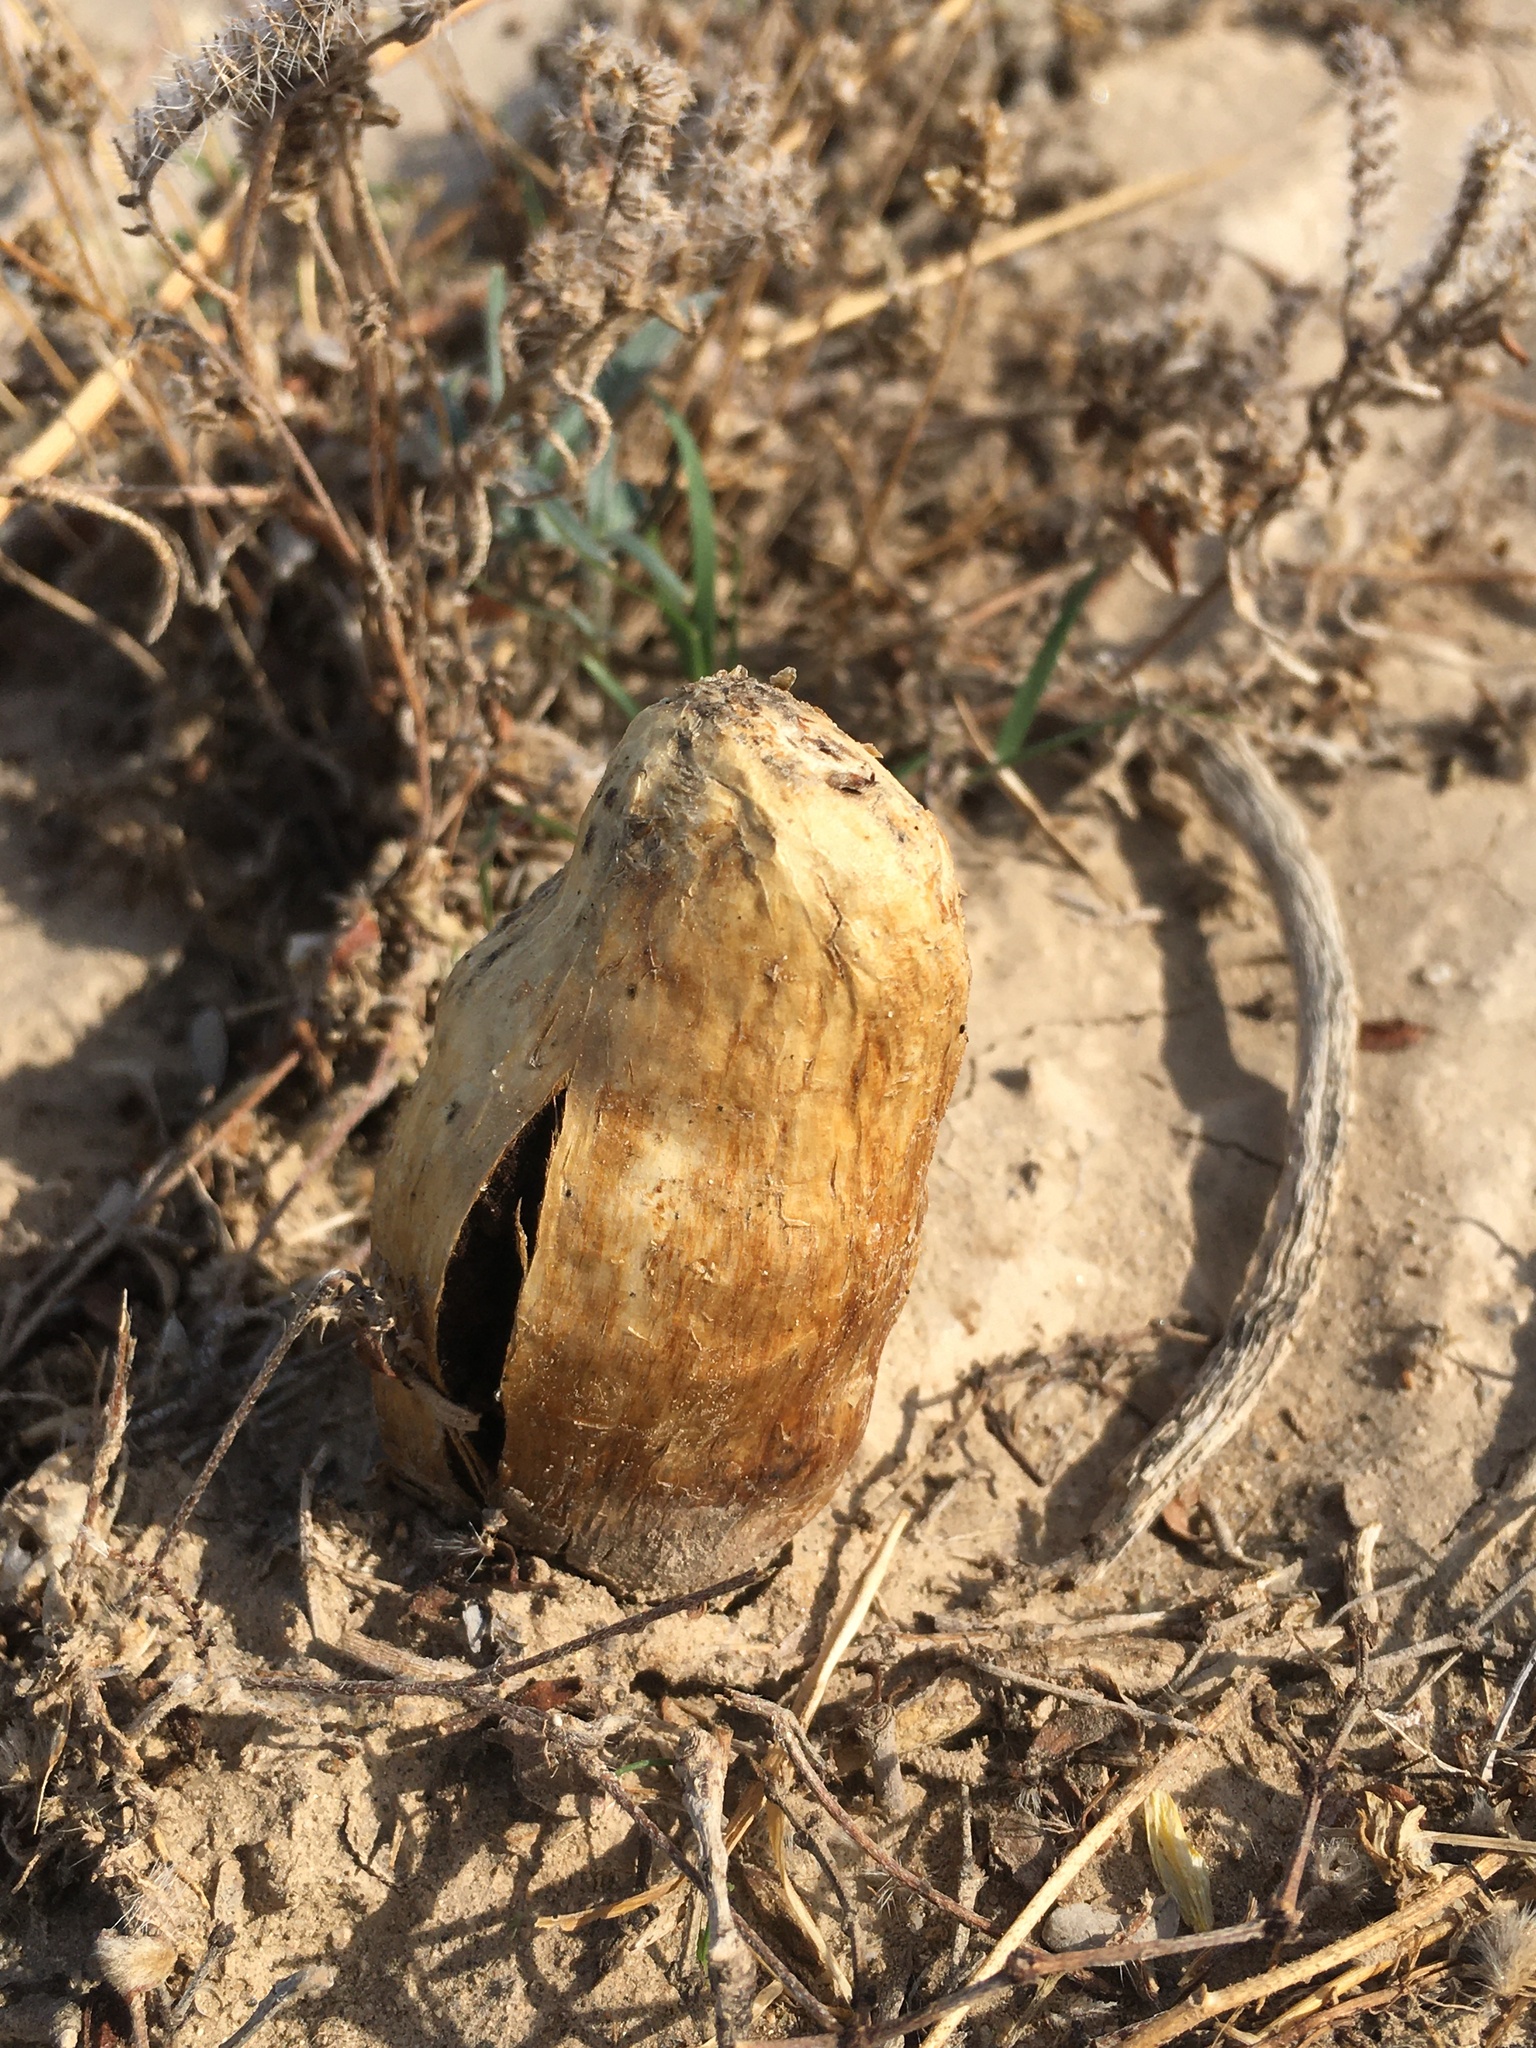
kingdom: Fungi
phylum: Basidiomycota
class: Agaricomycetes
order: Agaricales
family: Agaricaceae
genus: Podaxis
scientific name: Podaxis pistillaris
